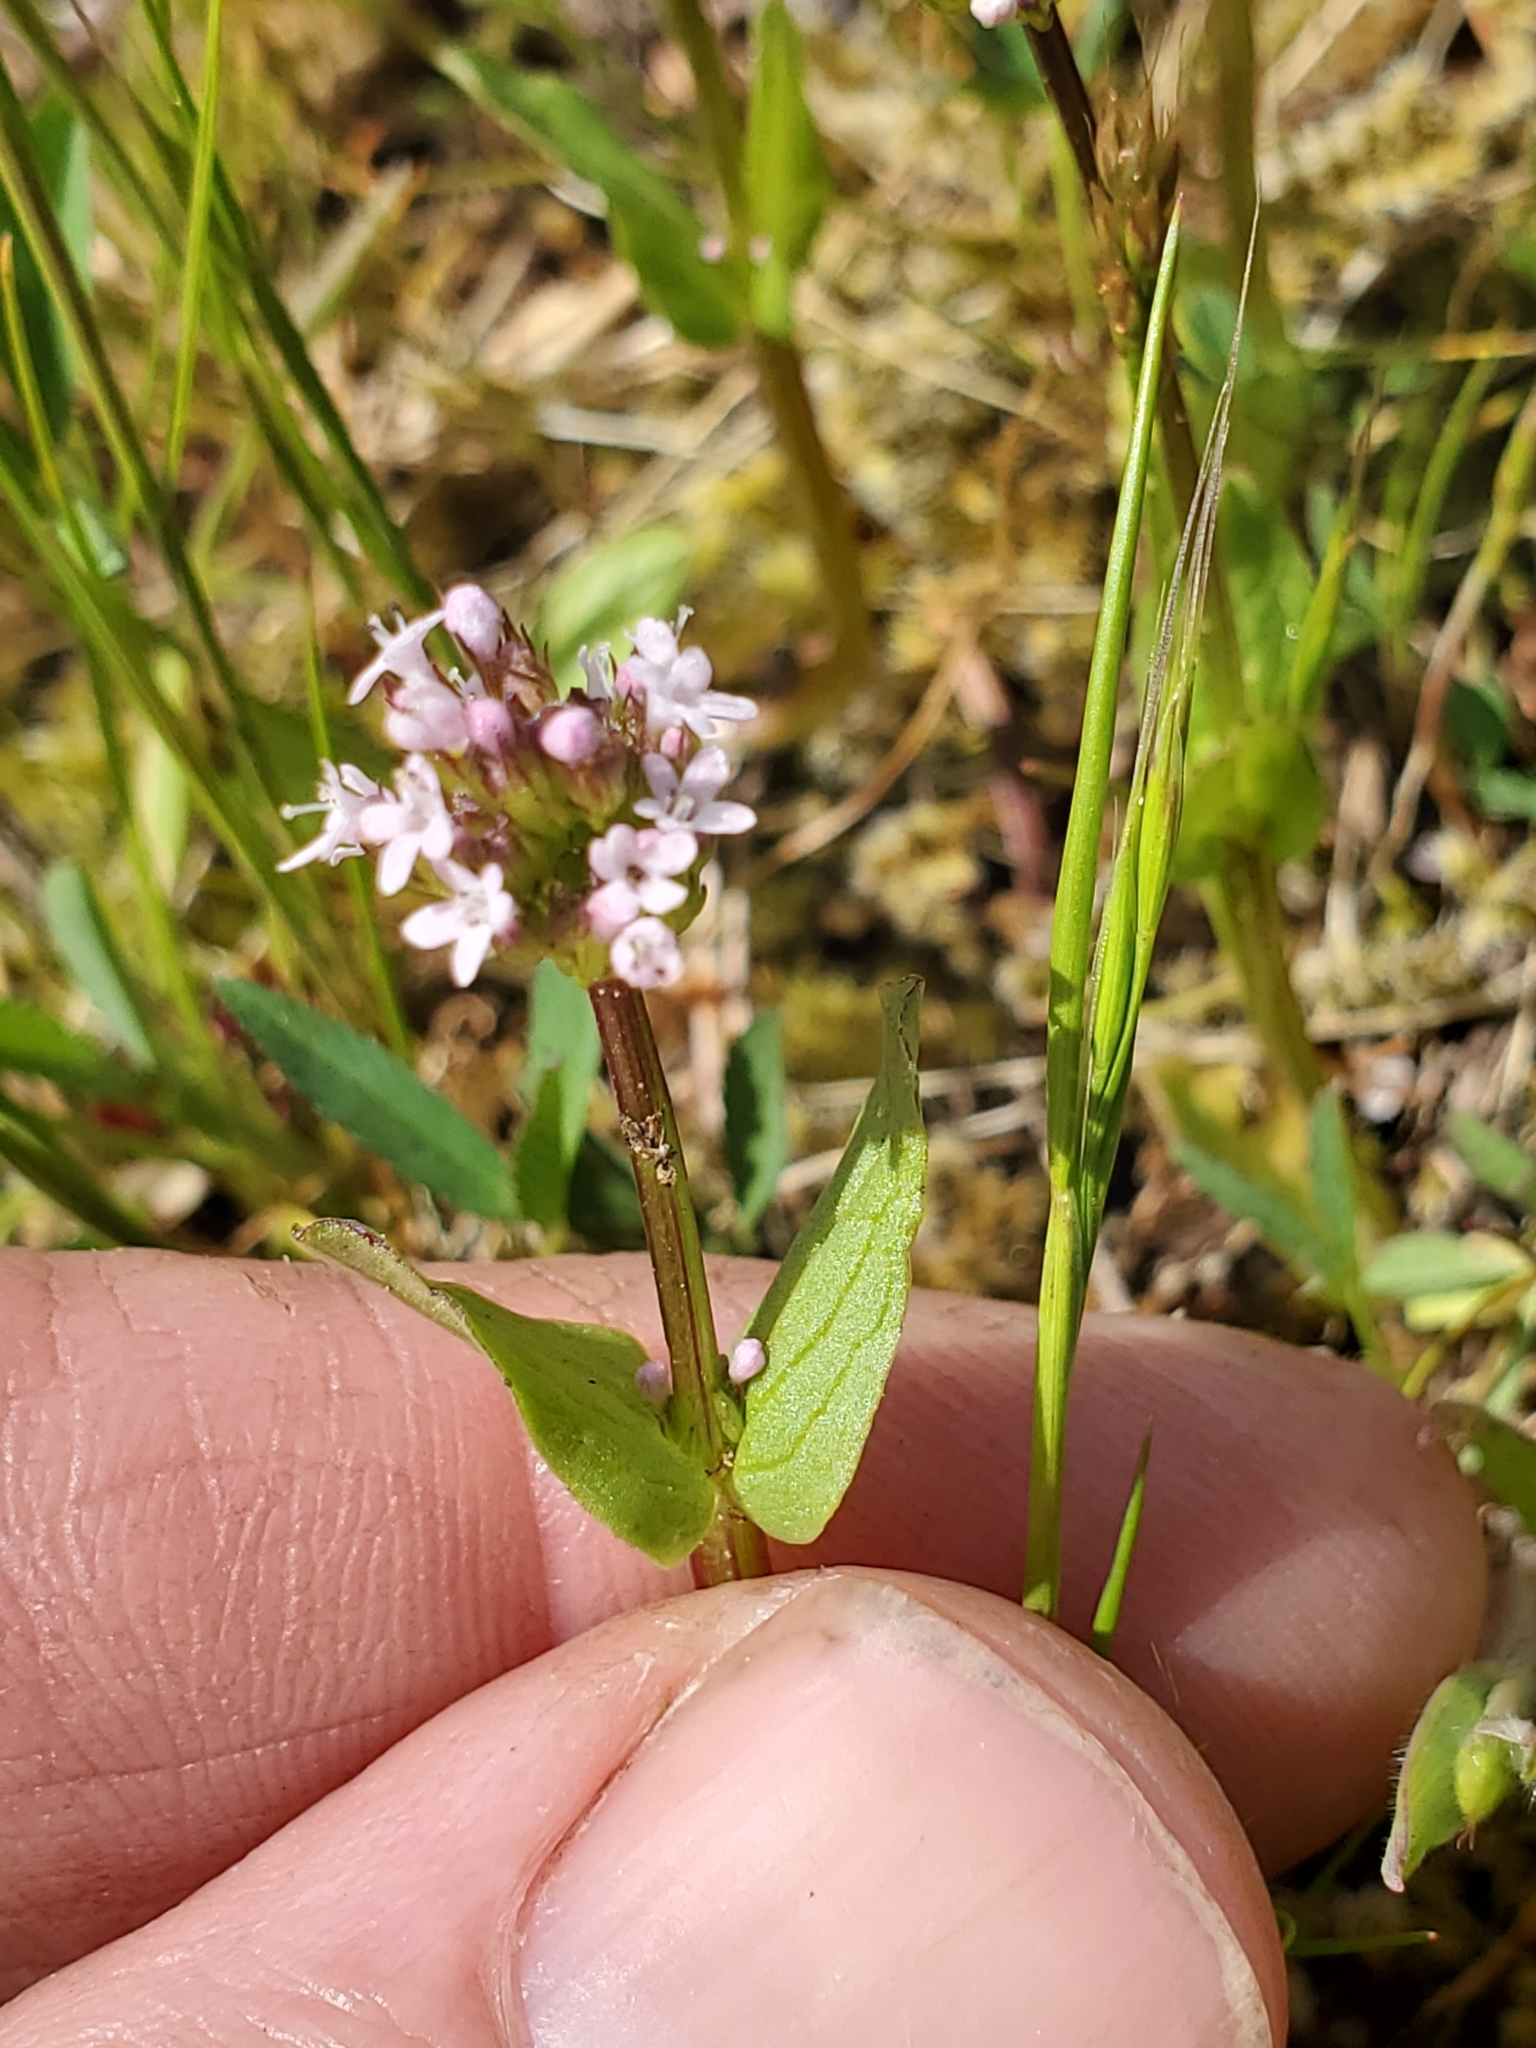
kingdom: Plantae
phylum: Tracheophyta
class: Magnoliopsida
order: Dipsacales
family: Caprifoliaceae
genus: Plectritis
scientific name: Plectritis brachystemon
